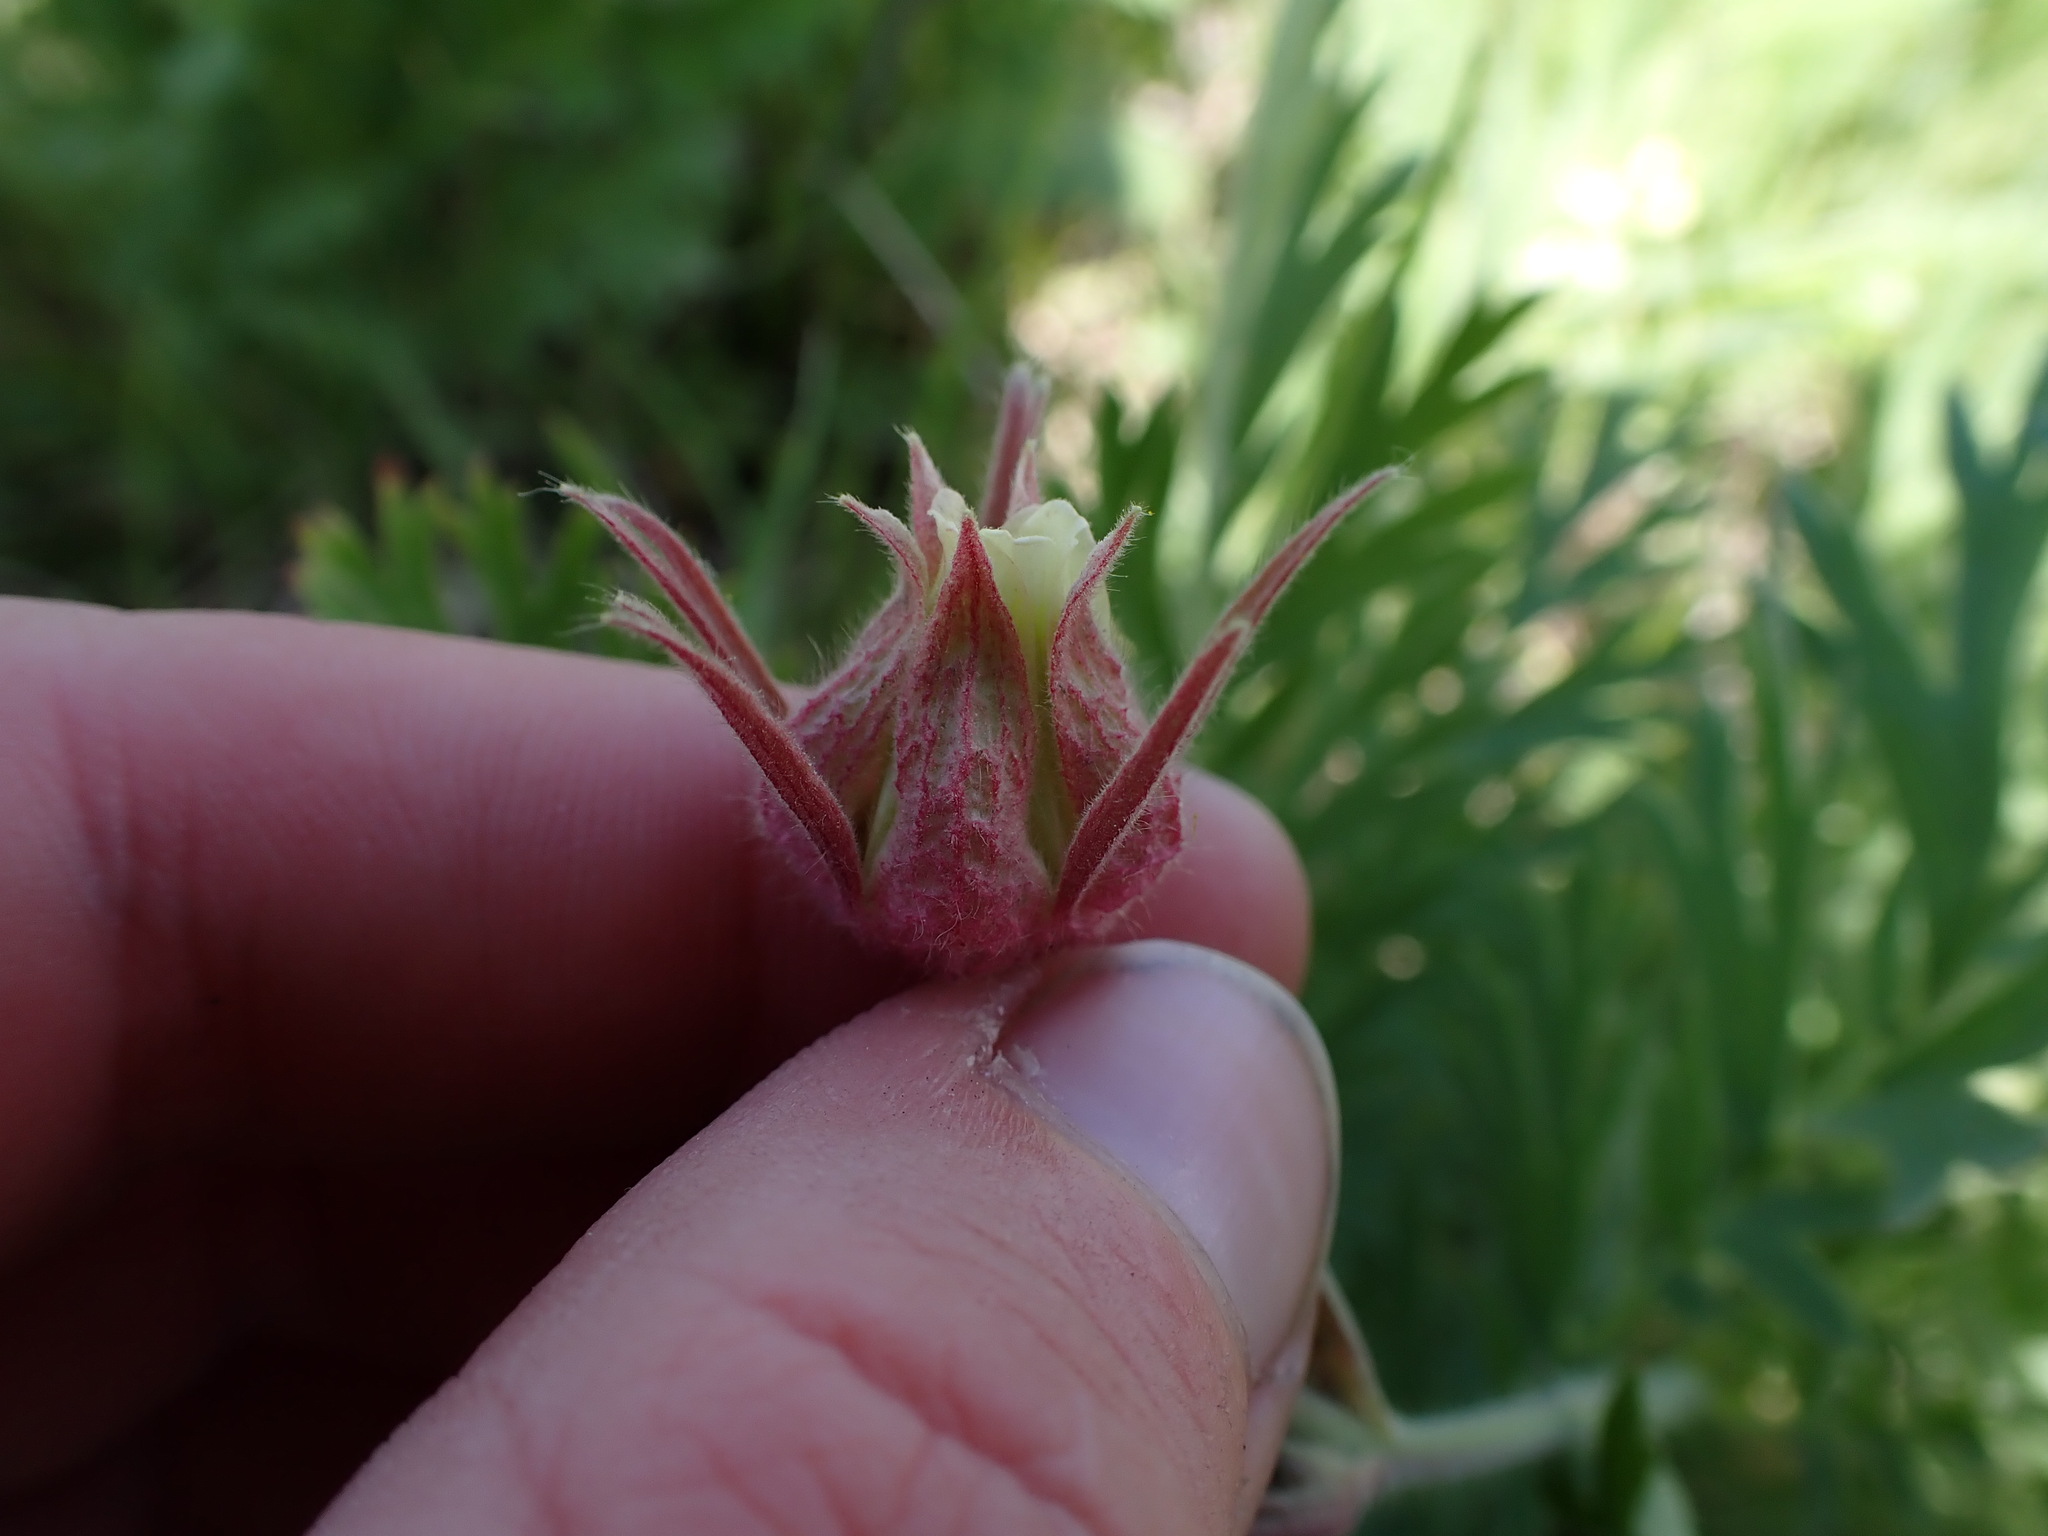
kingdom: Plantae
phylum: Tracheophyta
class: Magnoliopsida
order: Rosales
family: Rosaceae
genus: Geum
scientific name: Geum triflorum
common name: Old man's whiskers
